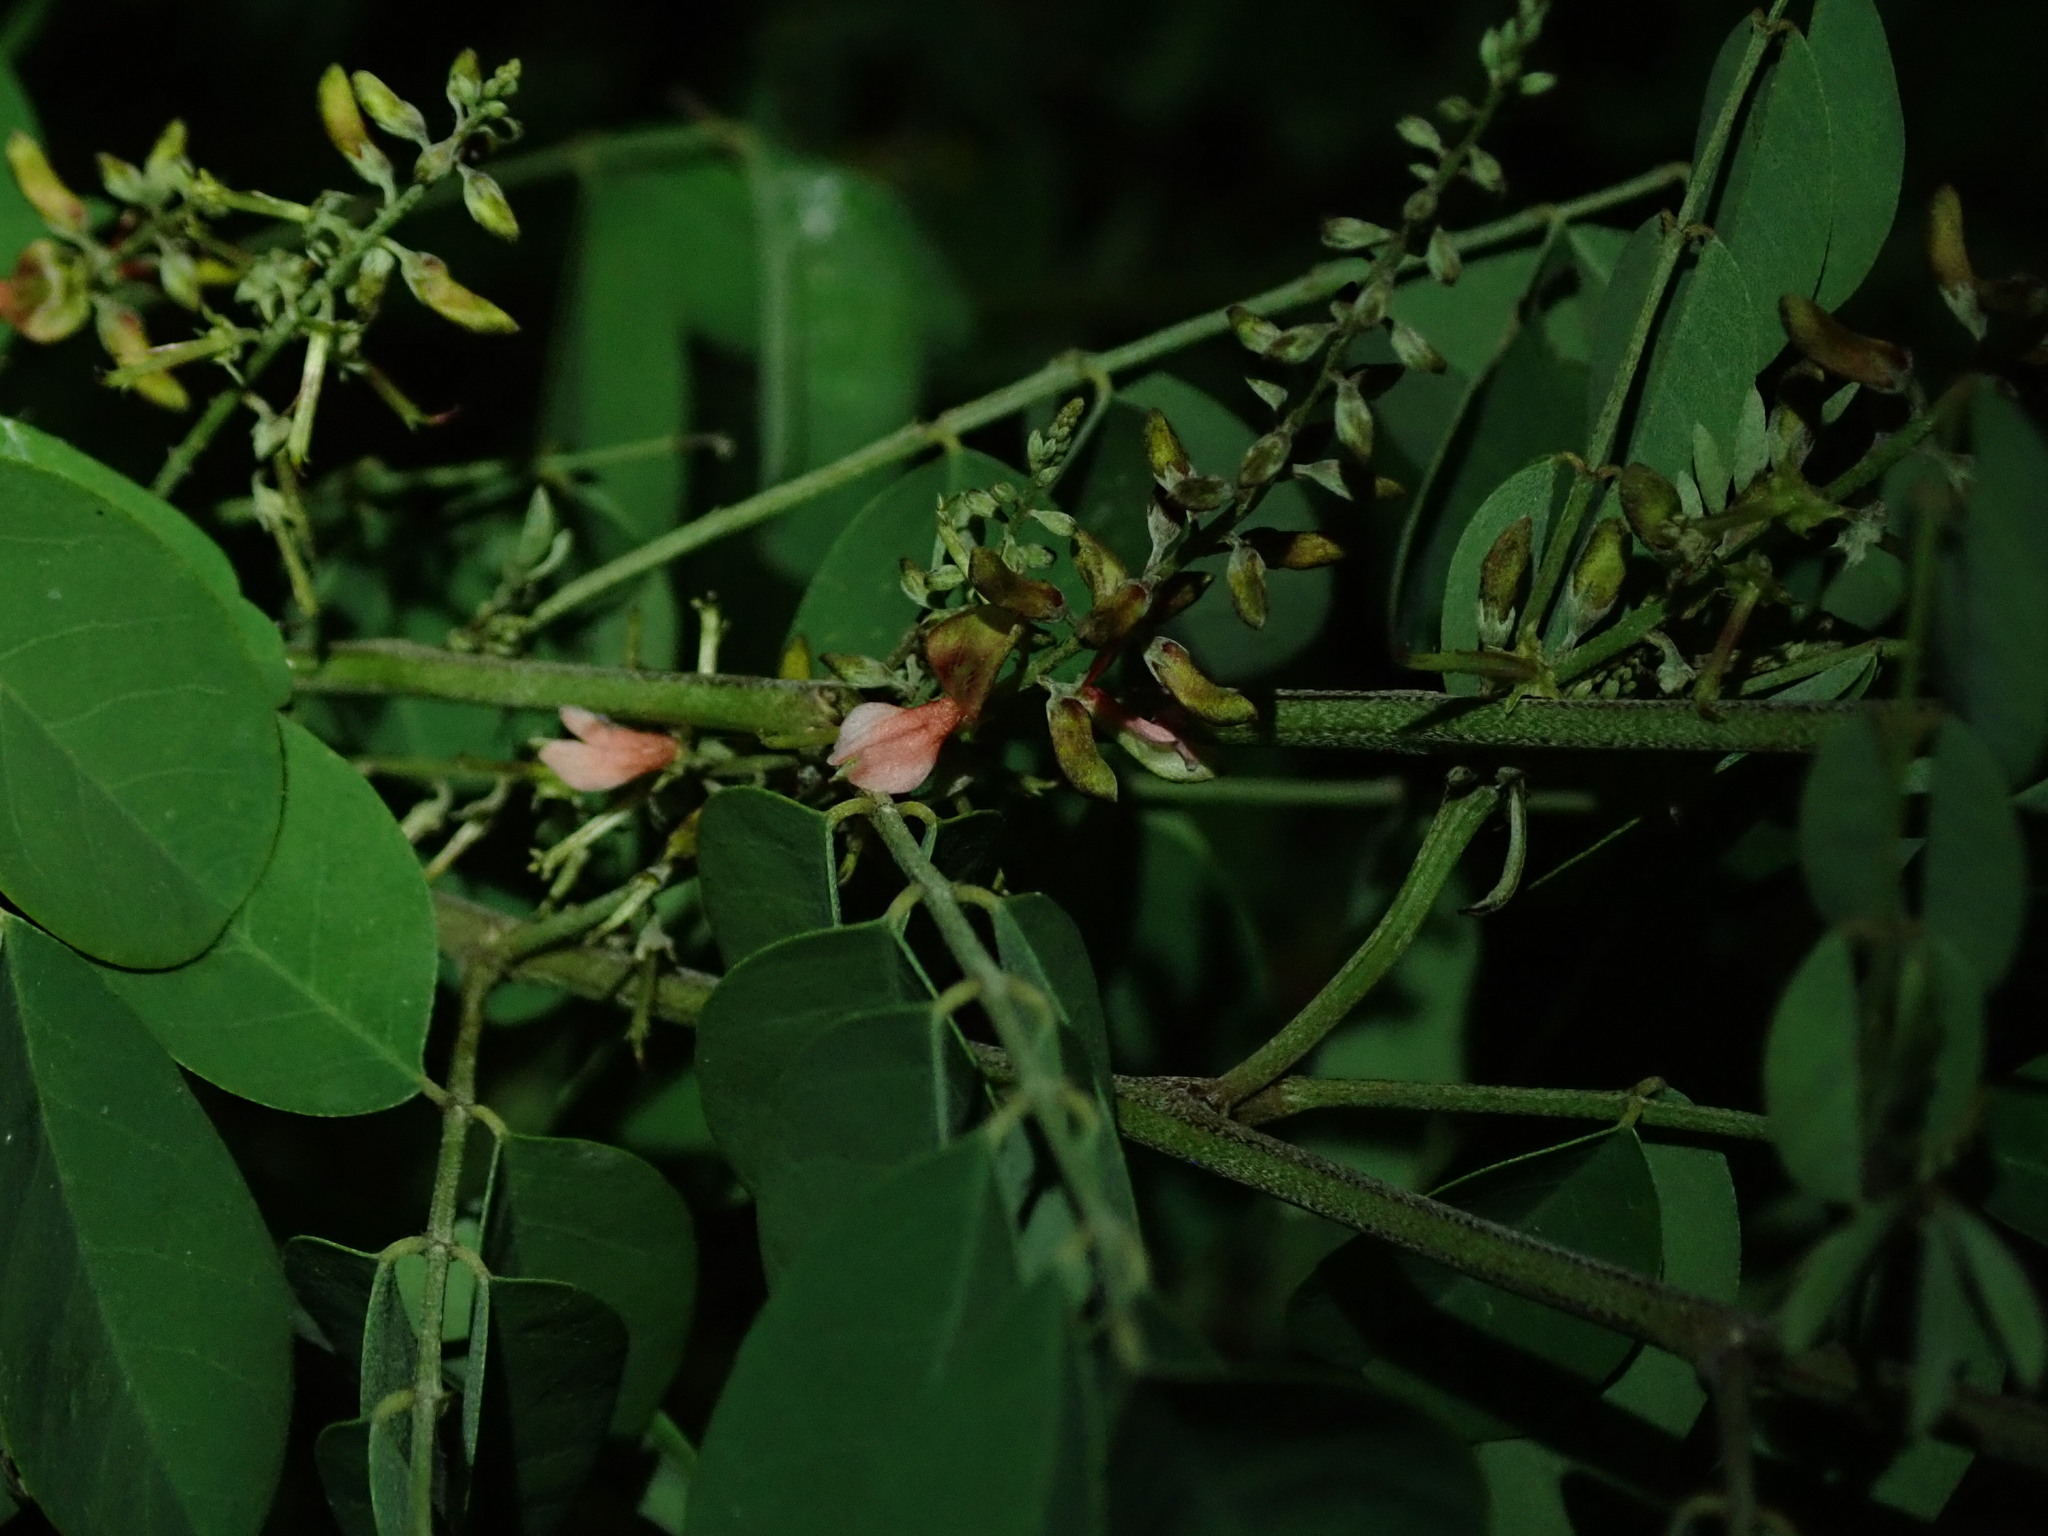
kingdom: Plantae
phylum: Tracheophyta
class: Magnoliopsida
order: Fabales
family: Fabaceae
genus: Indigofera
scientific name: Indigofera suffruticosa
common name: Anil de pasto
